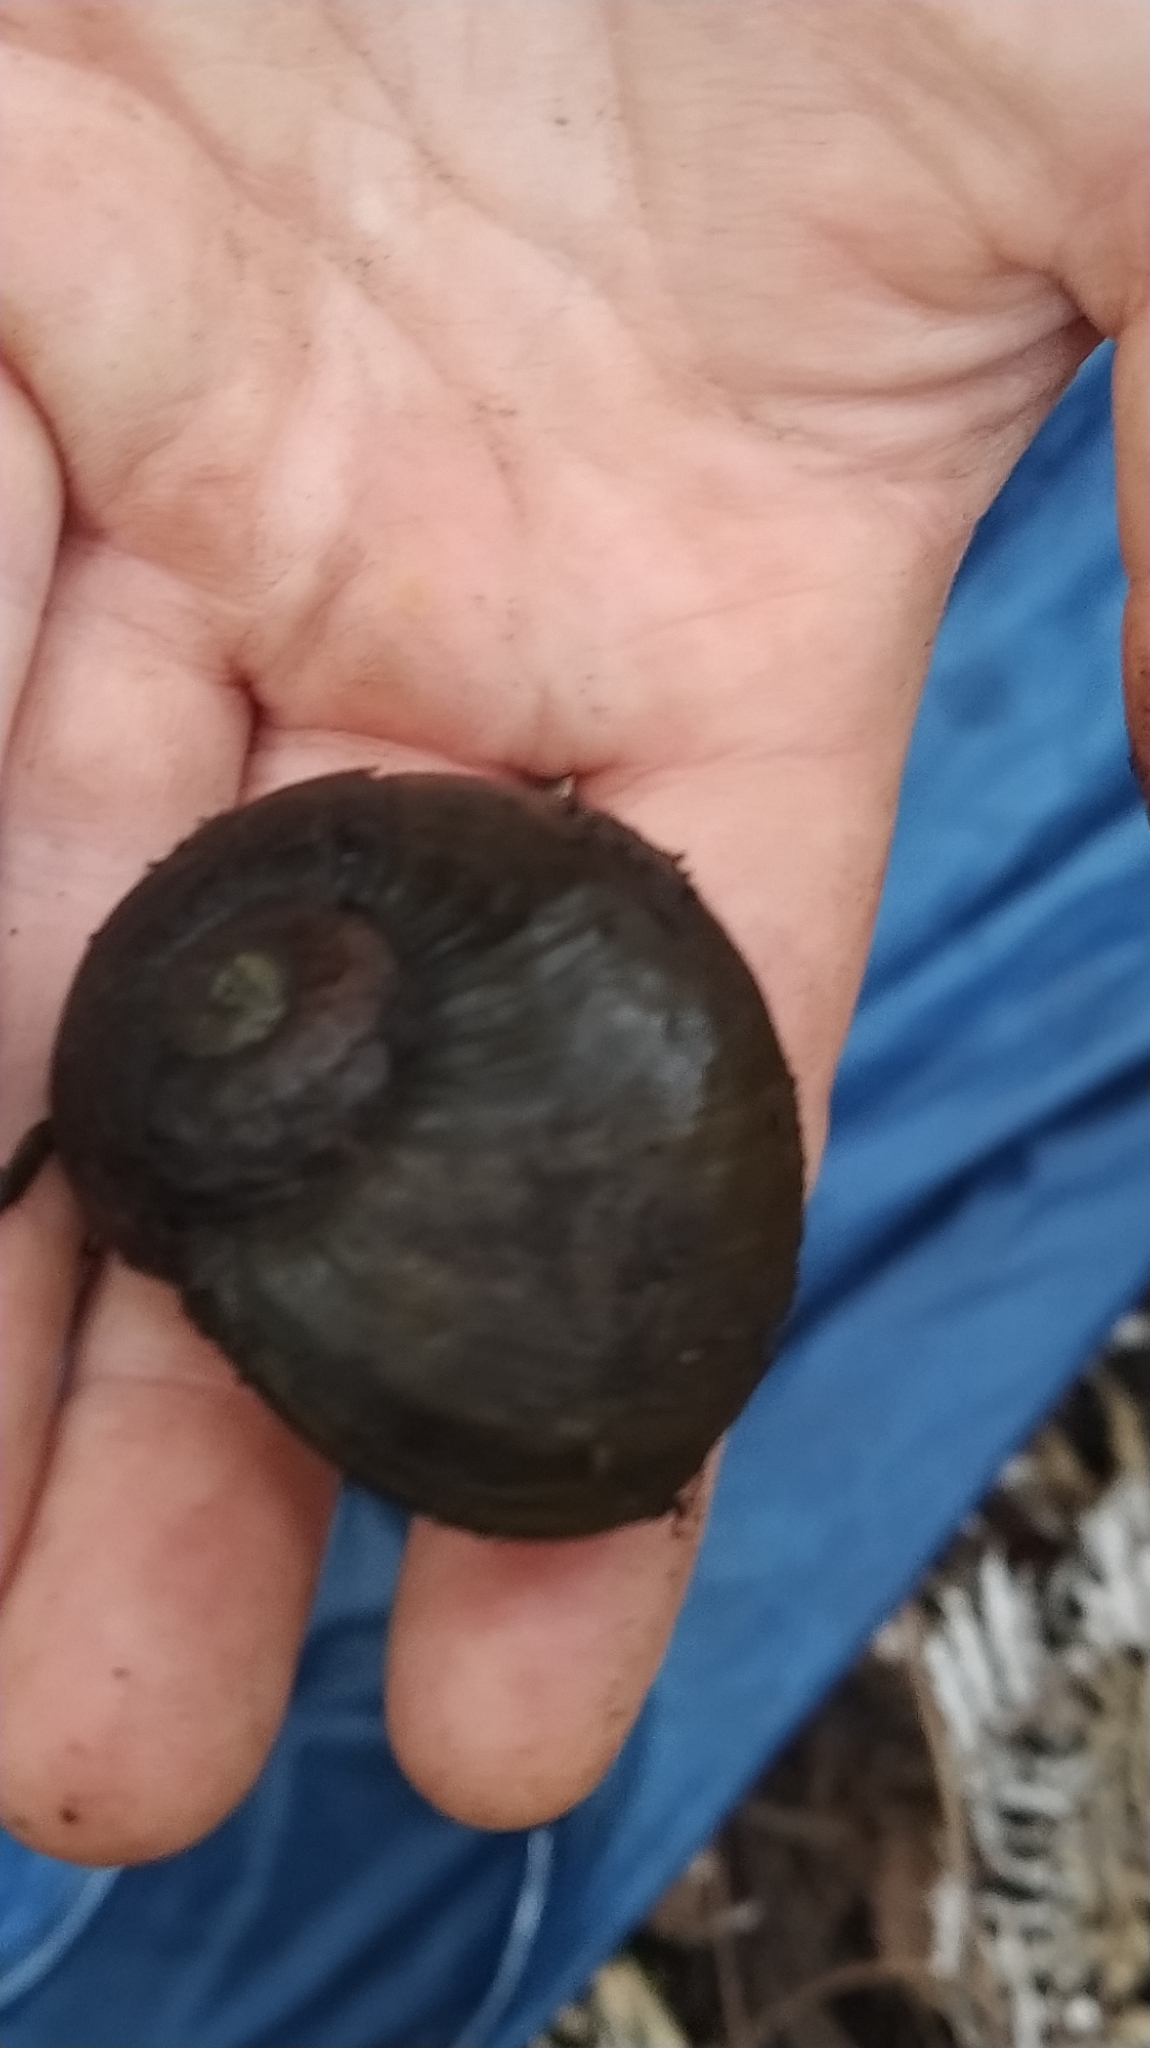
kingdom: Animalia
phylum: Mollusca
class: Gastropoda
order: Stylommatophora
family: Rhytididae
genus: Paryphanta
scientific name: Paryphanta busbyi
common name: Kauri snail
